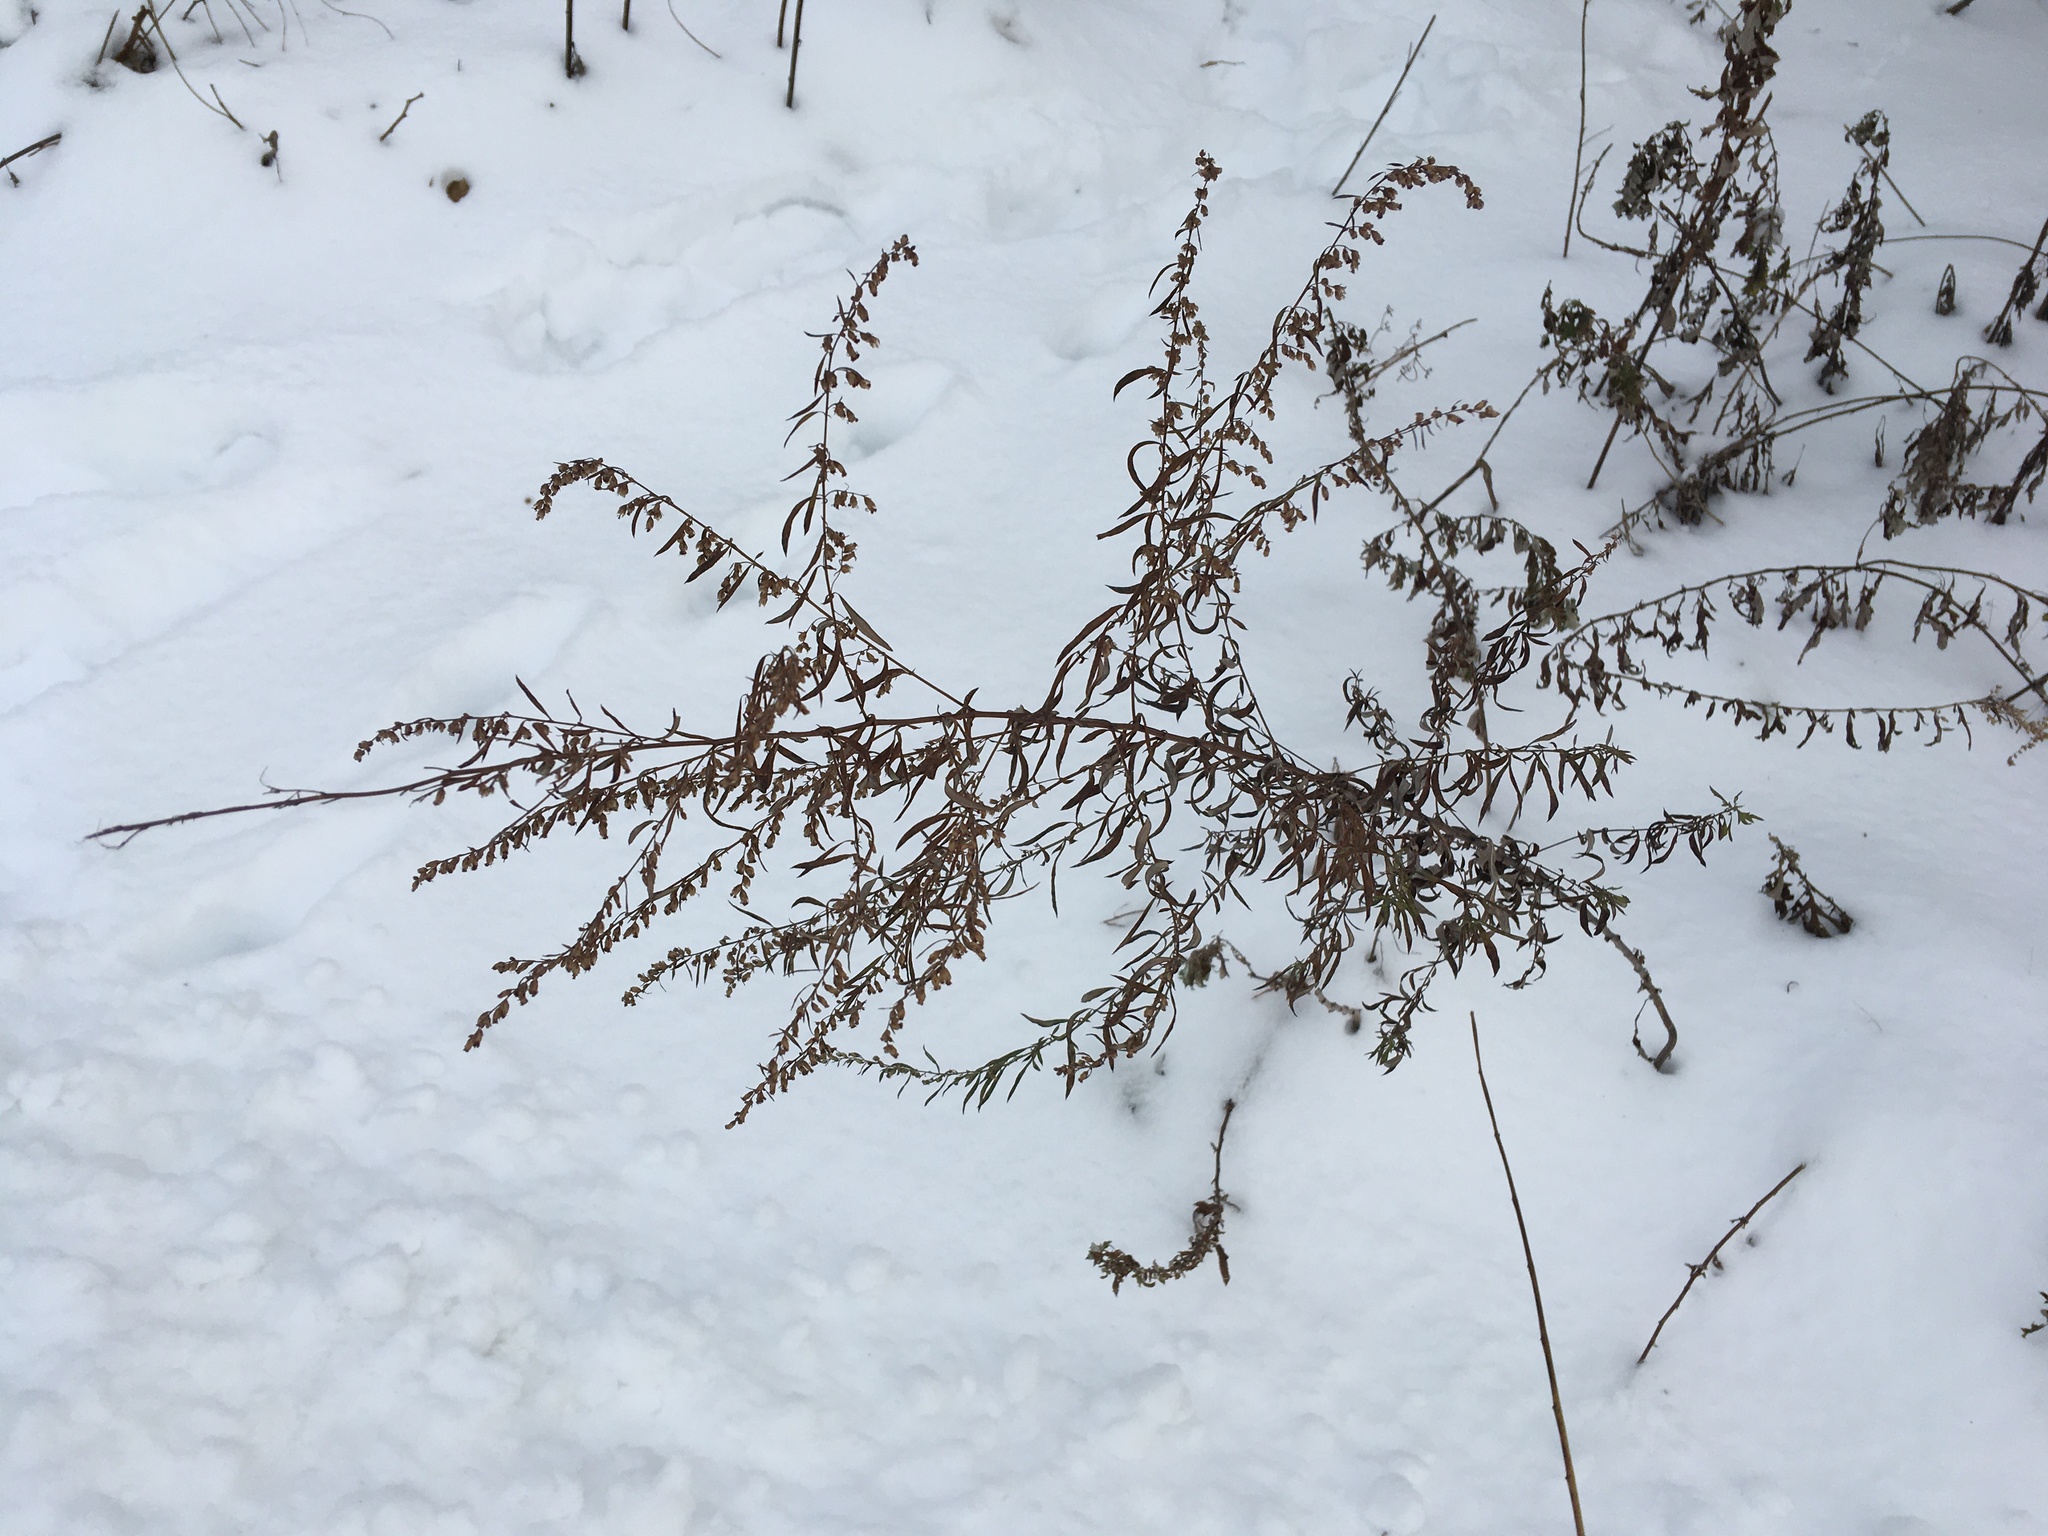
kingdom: Plantae
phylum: Tracheophyta
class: Magnoliopsida
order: Asterales
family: Asteraceae
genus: Artemisia
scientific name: Artemisia vulgaris
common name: Mugwort
